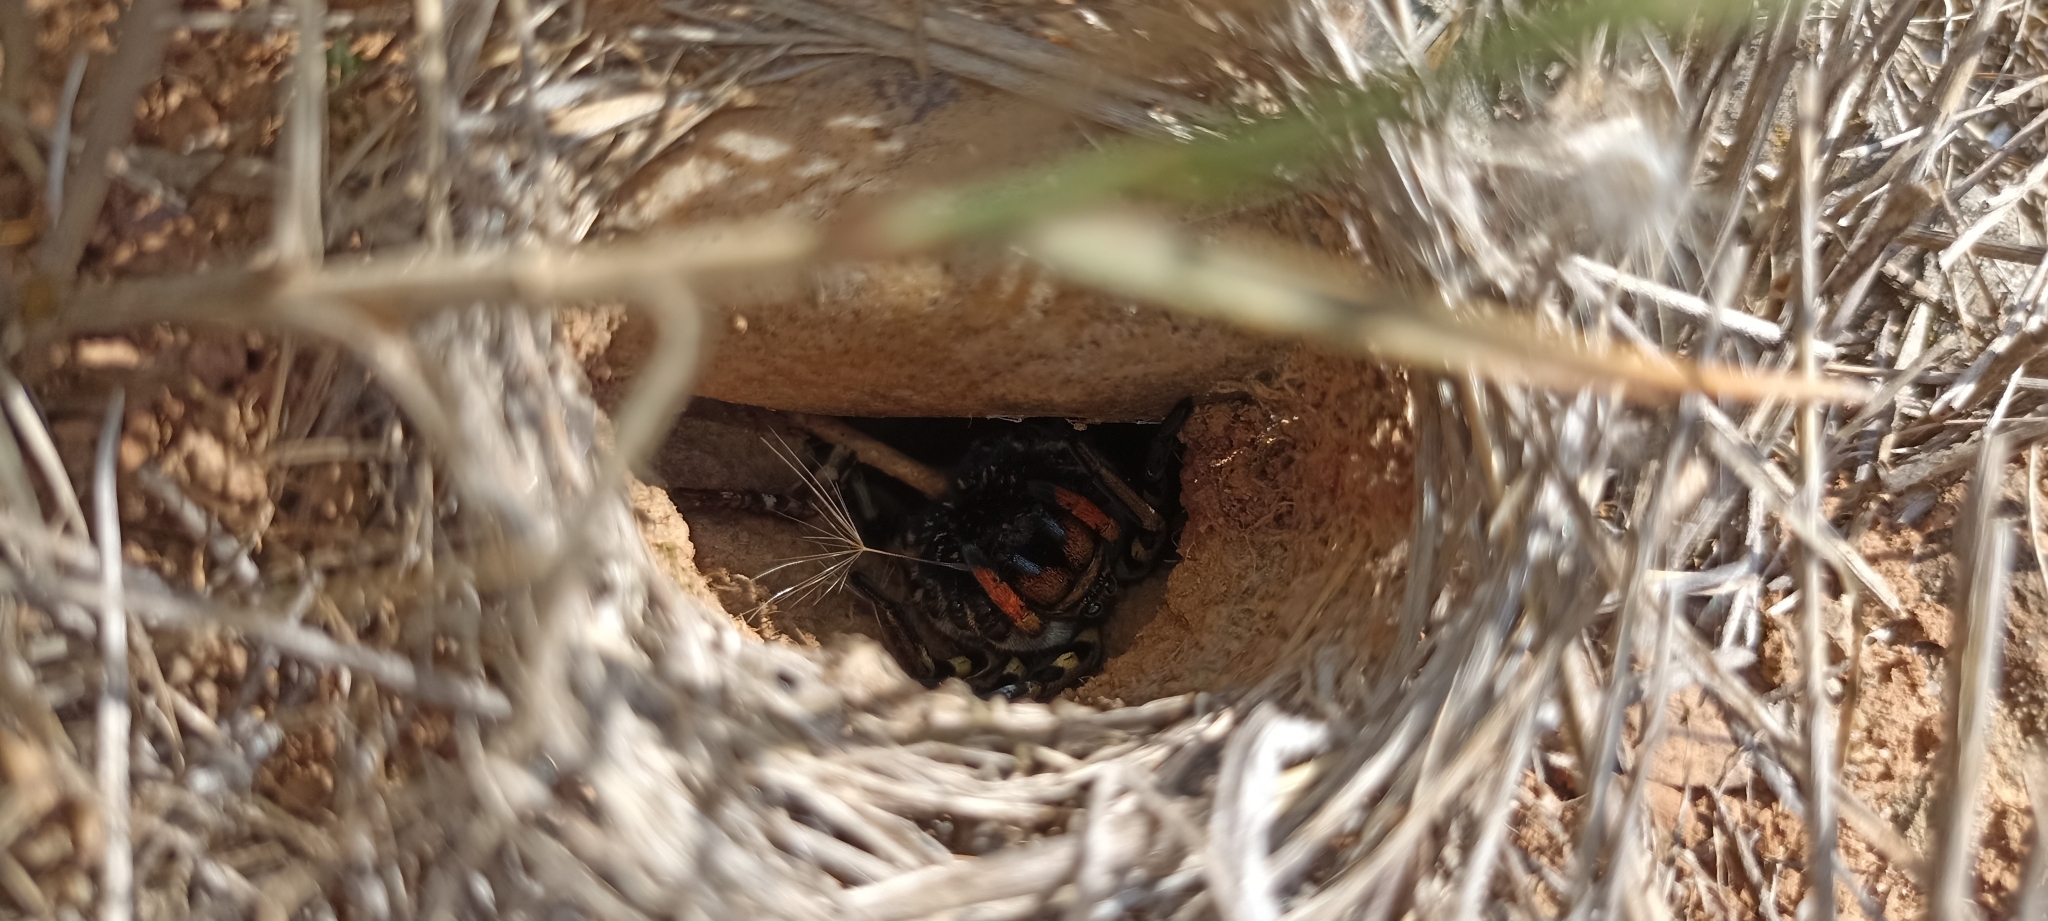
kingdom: Animalia
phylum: Arthropoda
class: Arachnida
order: Araneae
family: Lycosidae
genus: Lycosa
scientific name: Lycosa tarantula
